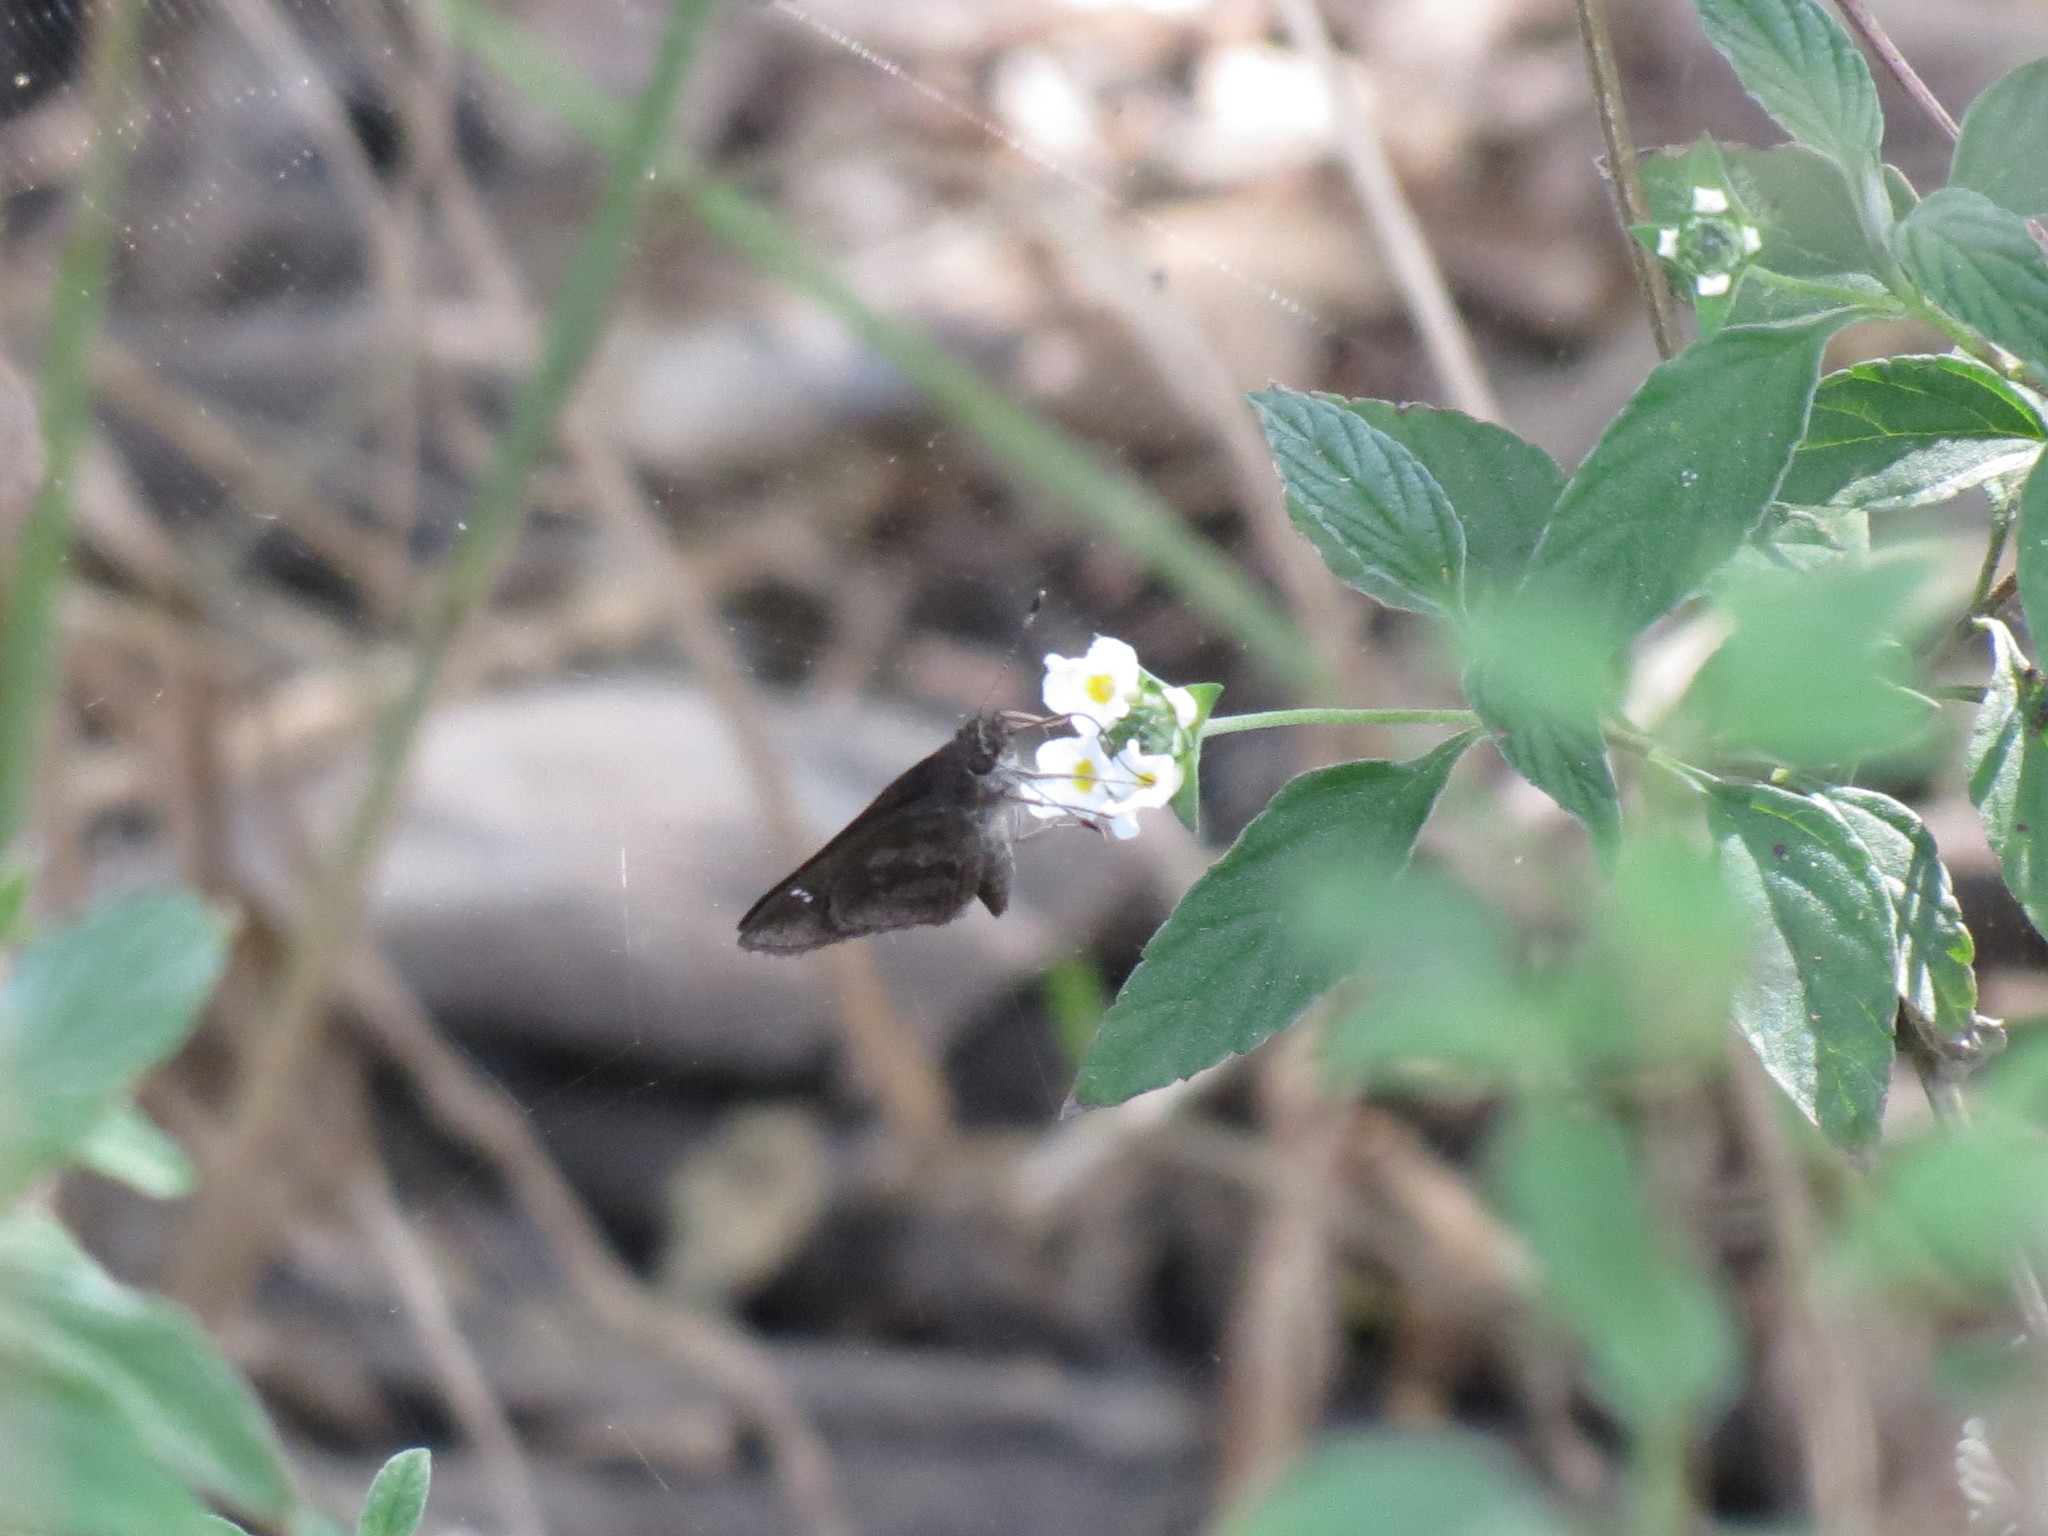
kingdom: Animalia
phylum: Arthropoda
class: Insecta
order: Lepidoptera
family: Hesperiidae
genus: Lerema
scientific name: Lerema accius
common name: Clouded skipper
